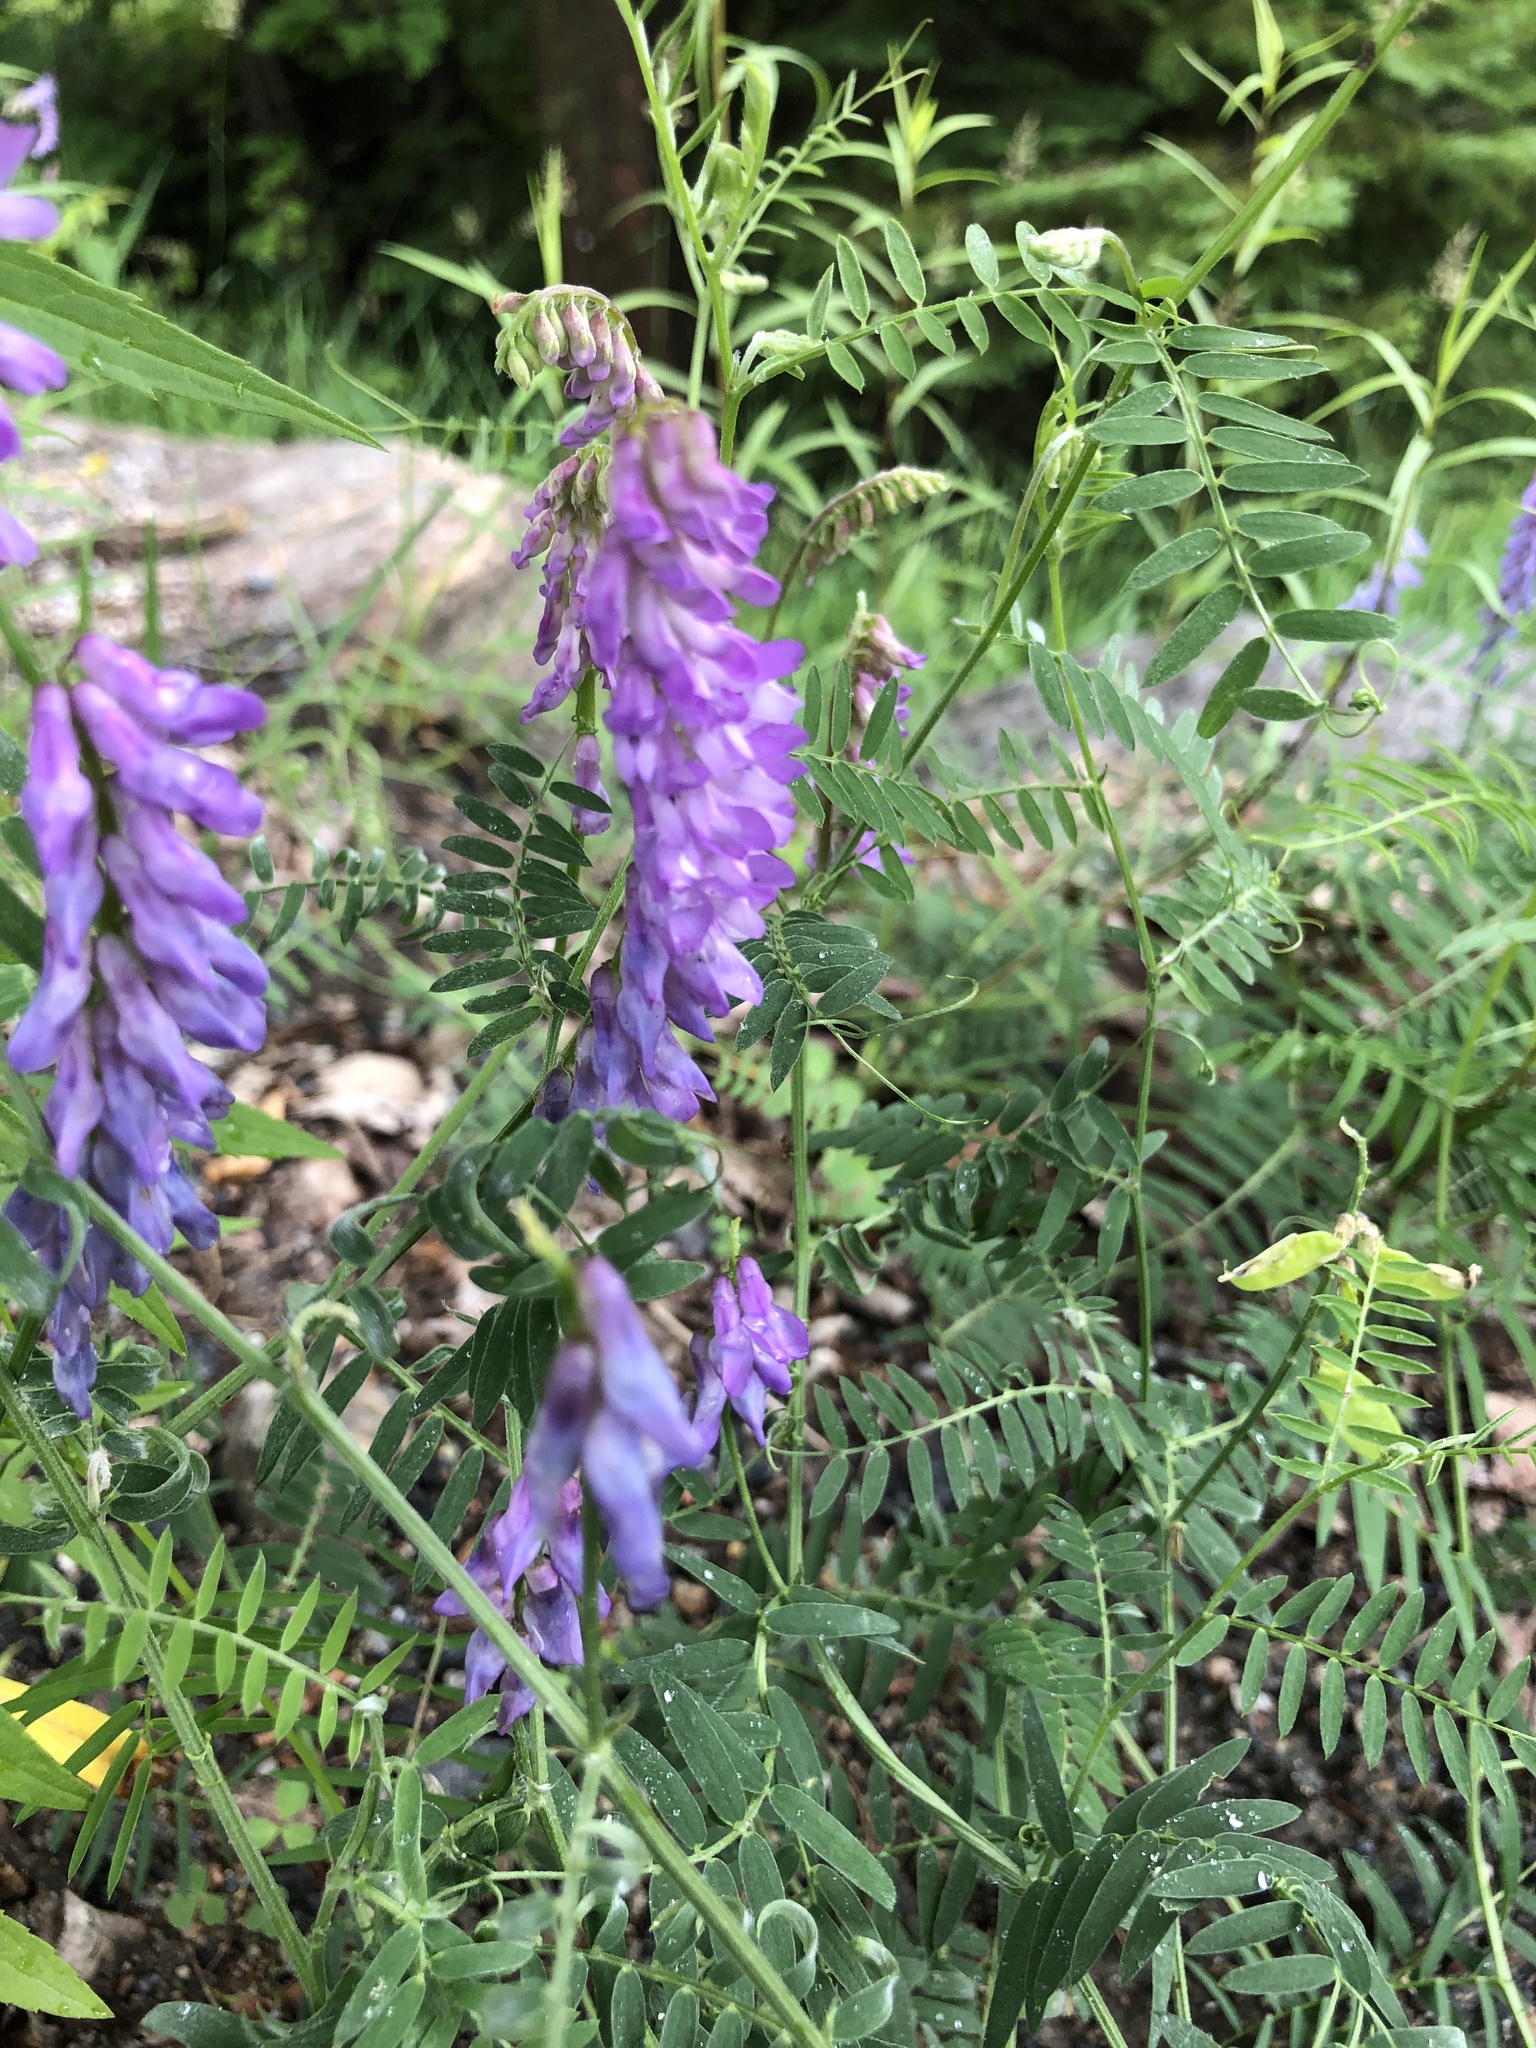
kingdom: Plantae
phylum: Tracheophyta
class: Magnoliopsida
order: Fabales
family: Fabaceae
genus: Vicia
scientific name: Vicia cracca
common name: Bird vetch
